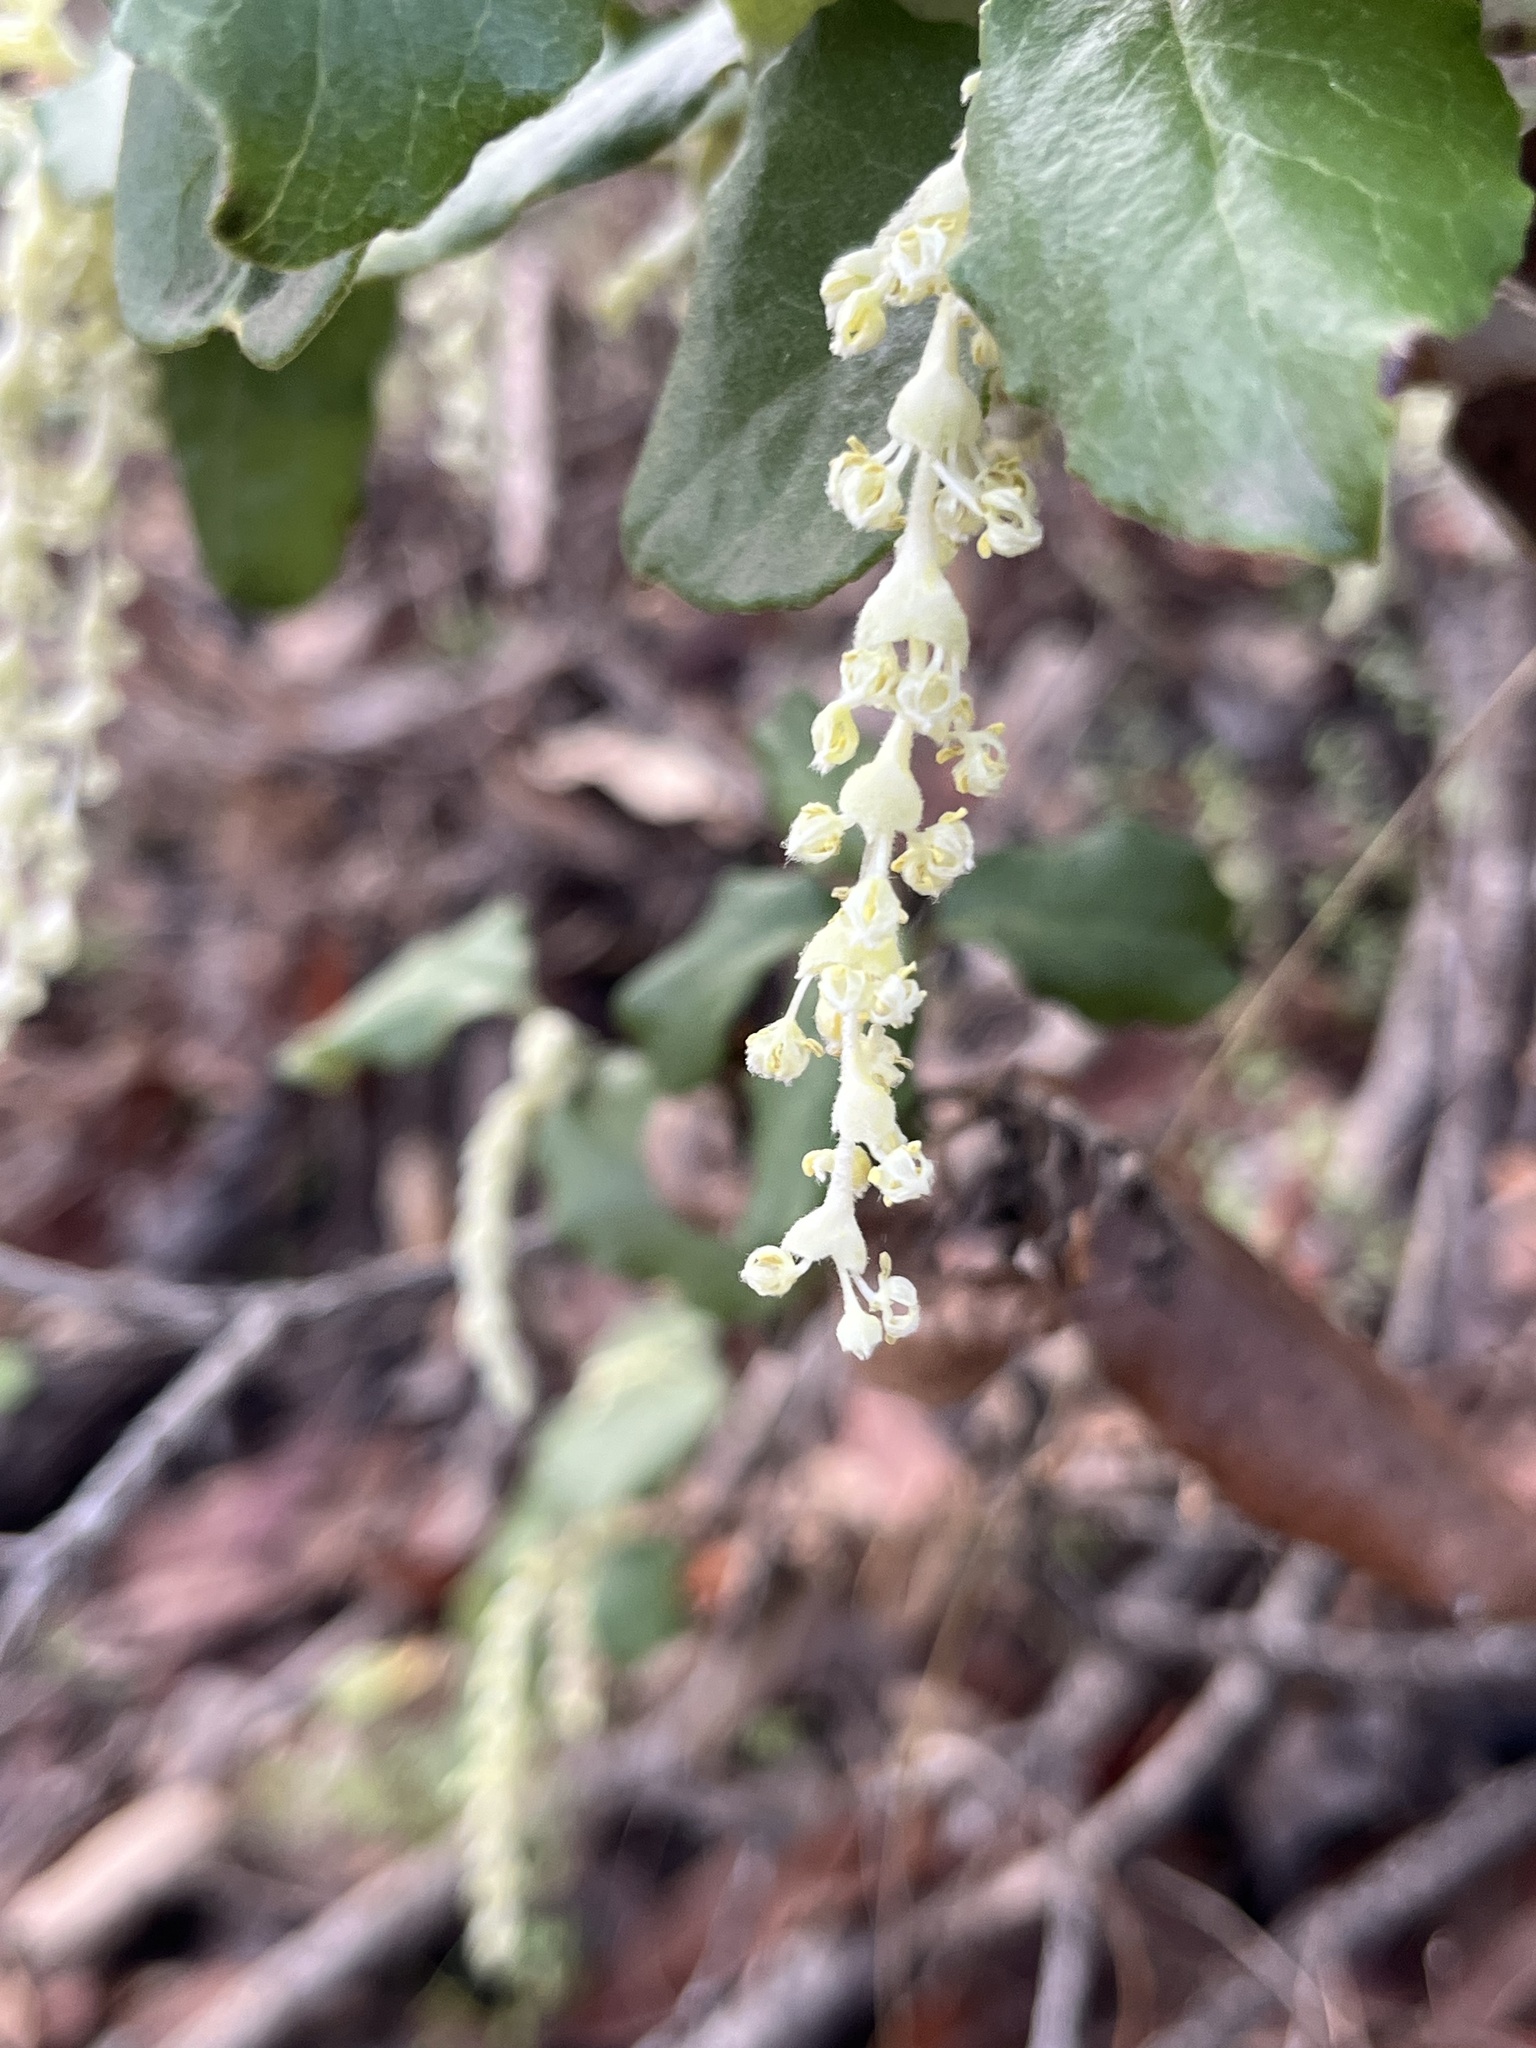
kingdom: Plantae
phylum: Tracheophyta
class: Magnoliopsida
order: Garryales
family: Garryaceae
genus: Garrya
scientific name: Garrya elliptica
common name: Silk-tassel
